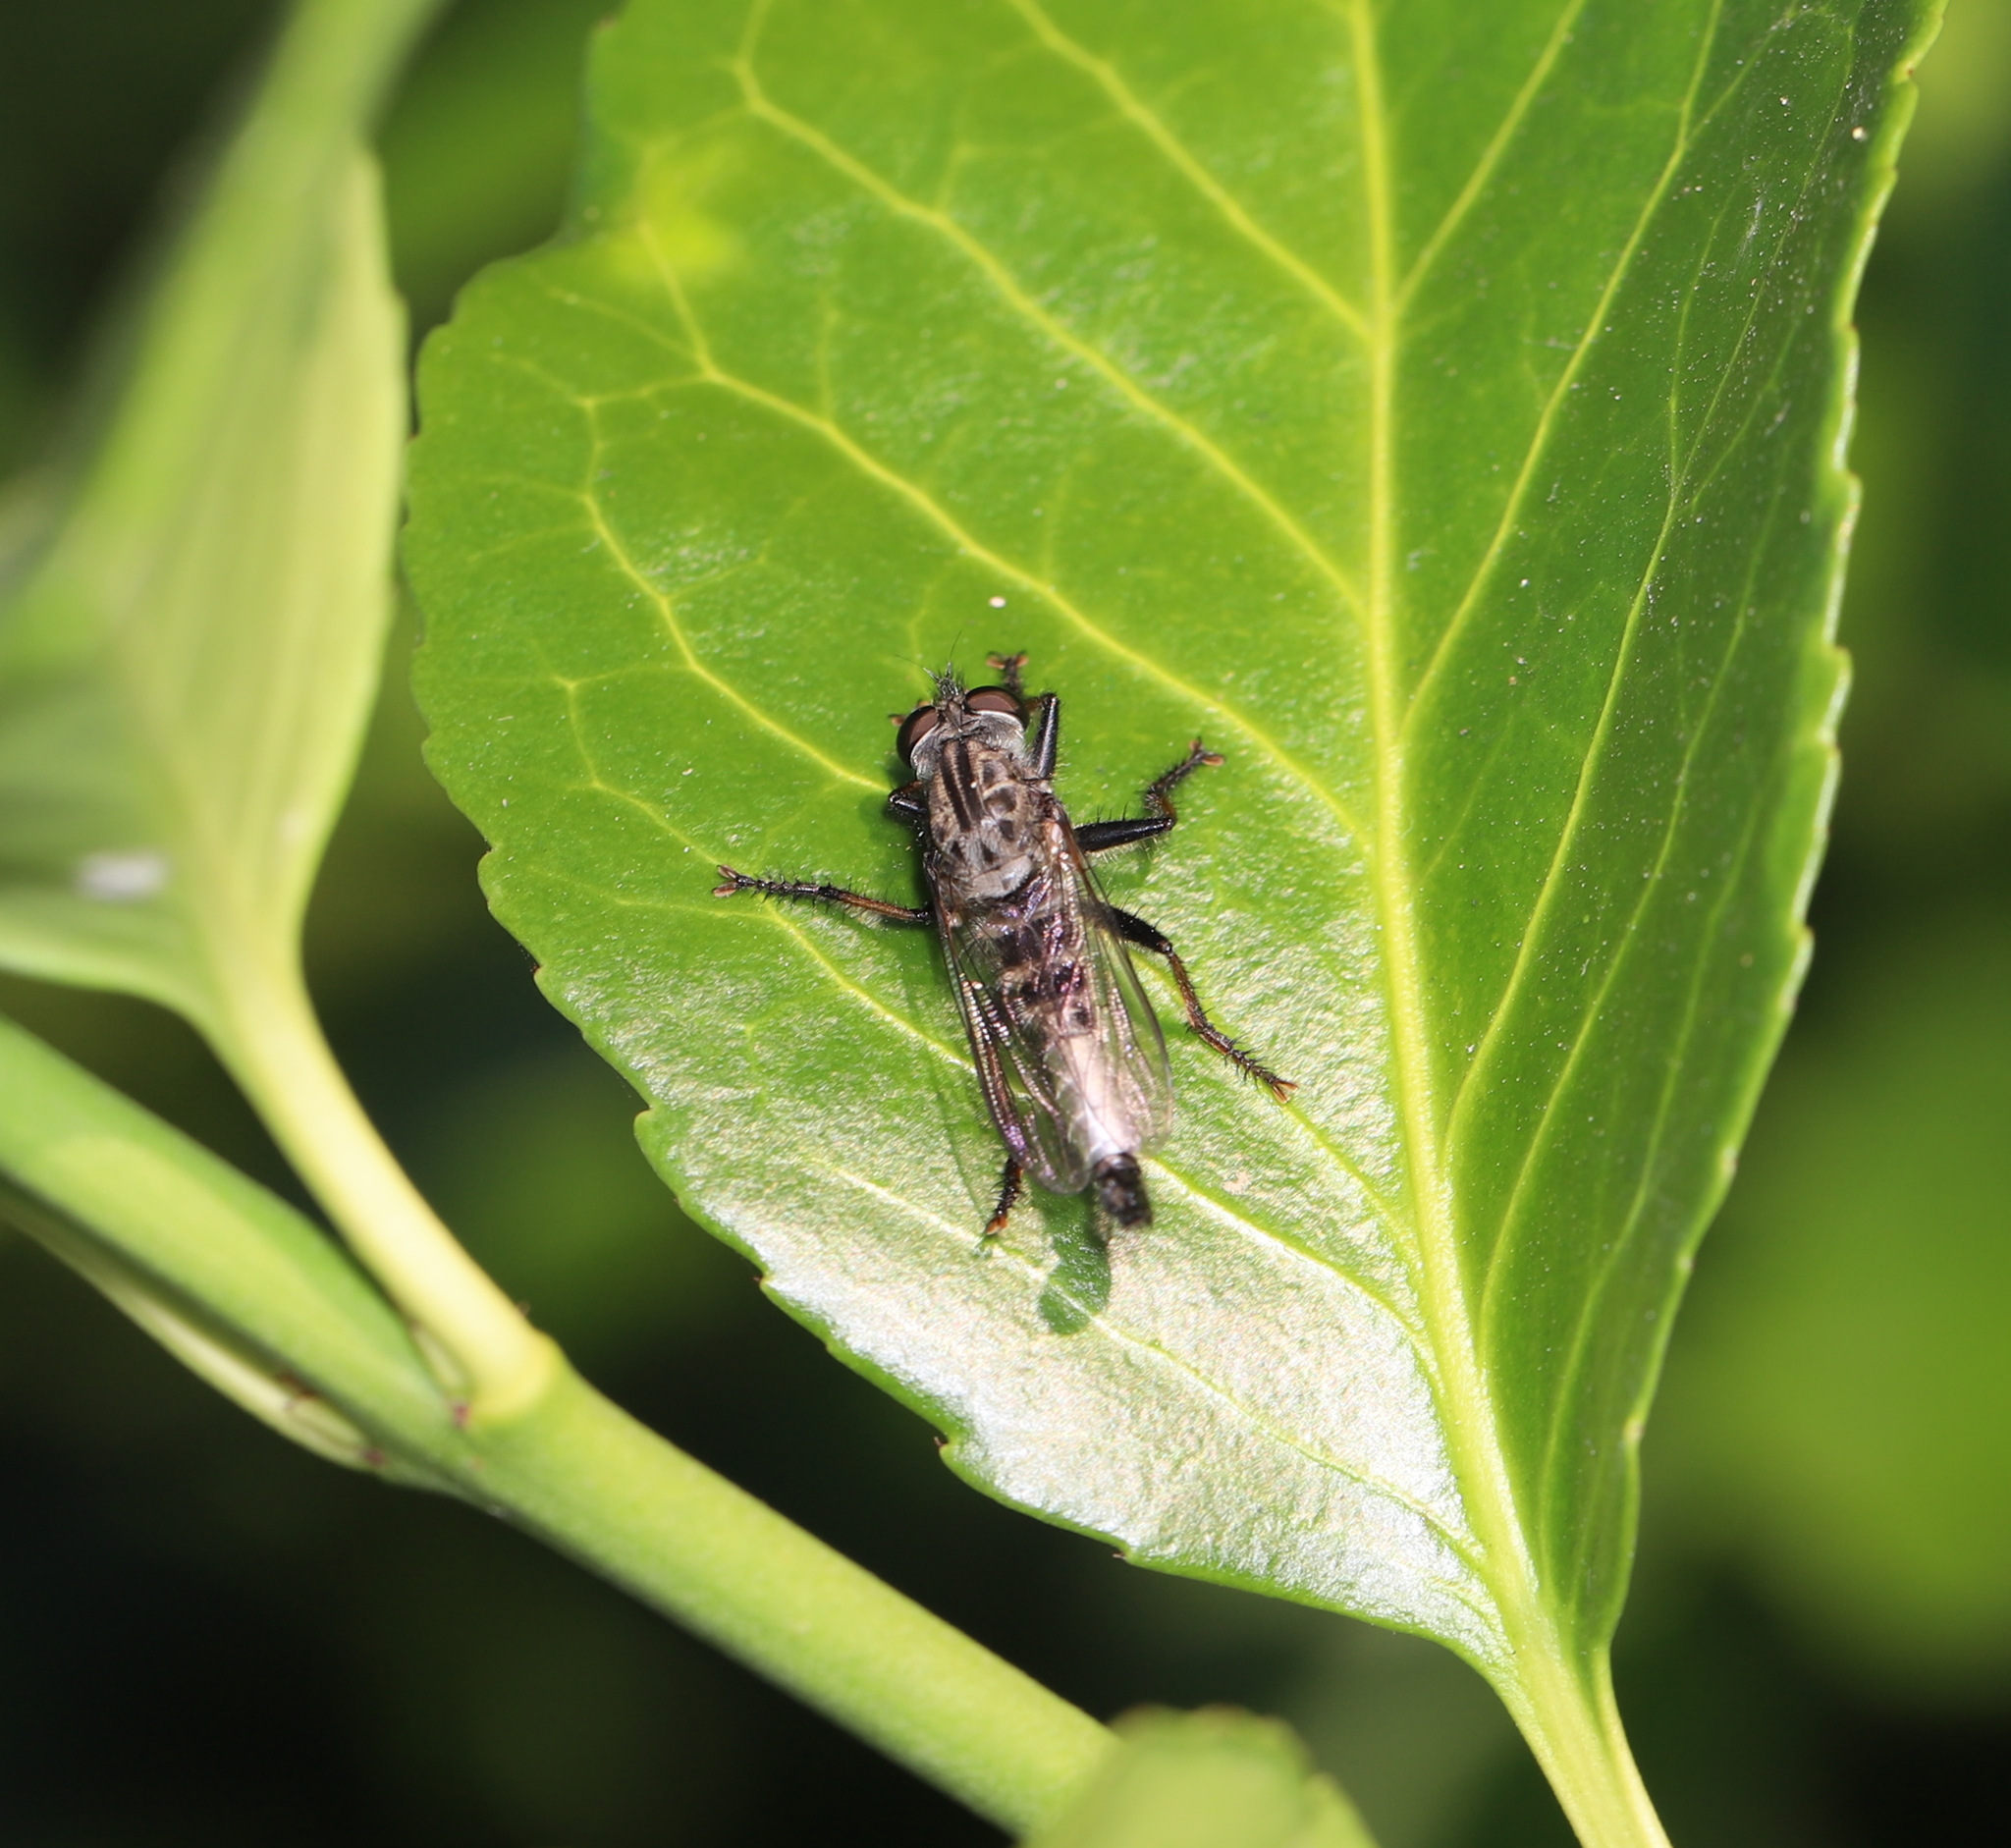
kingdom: Animalia
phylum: Arthropoda
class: Insecta
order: Diptera
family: Asilidae
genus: Efferia
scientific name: Efferia aestuans
